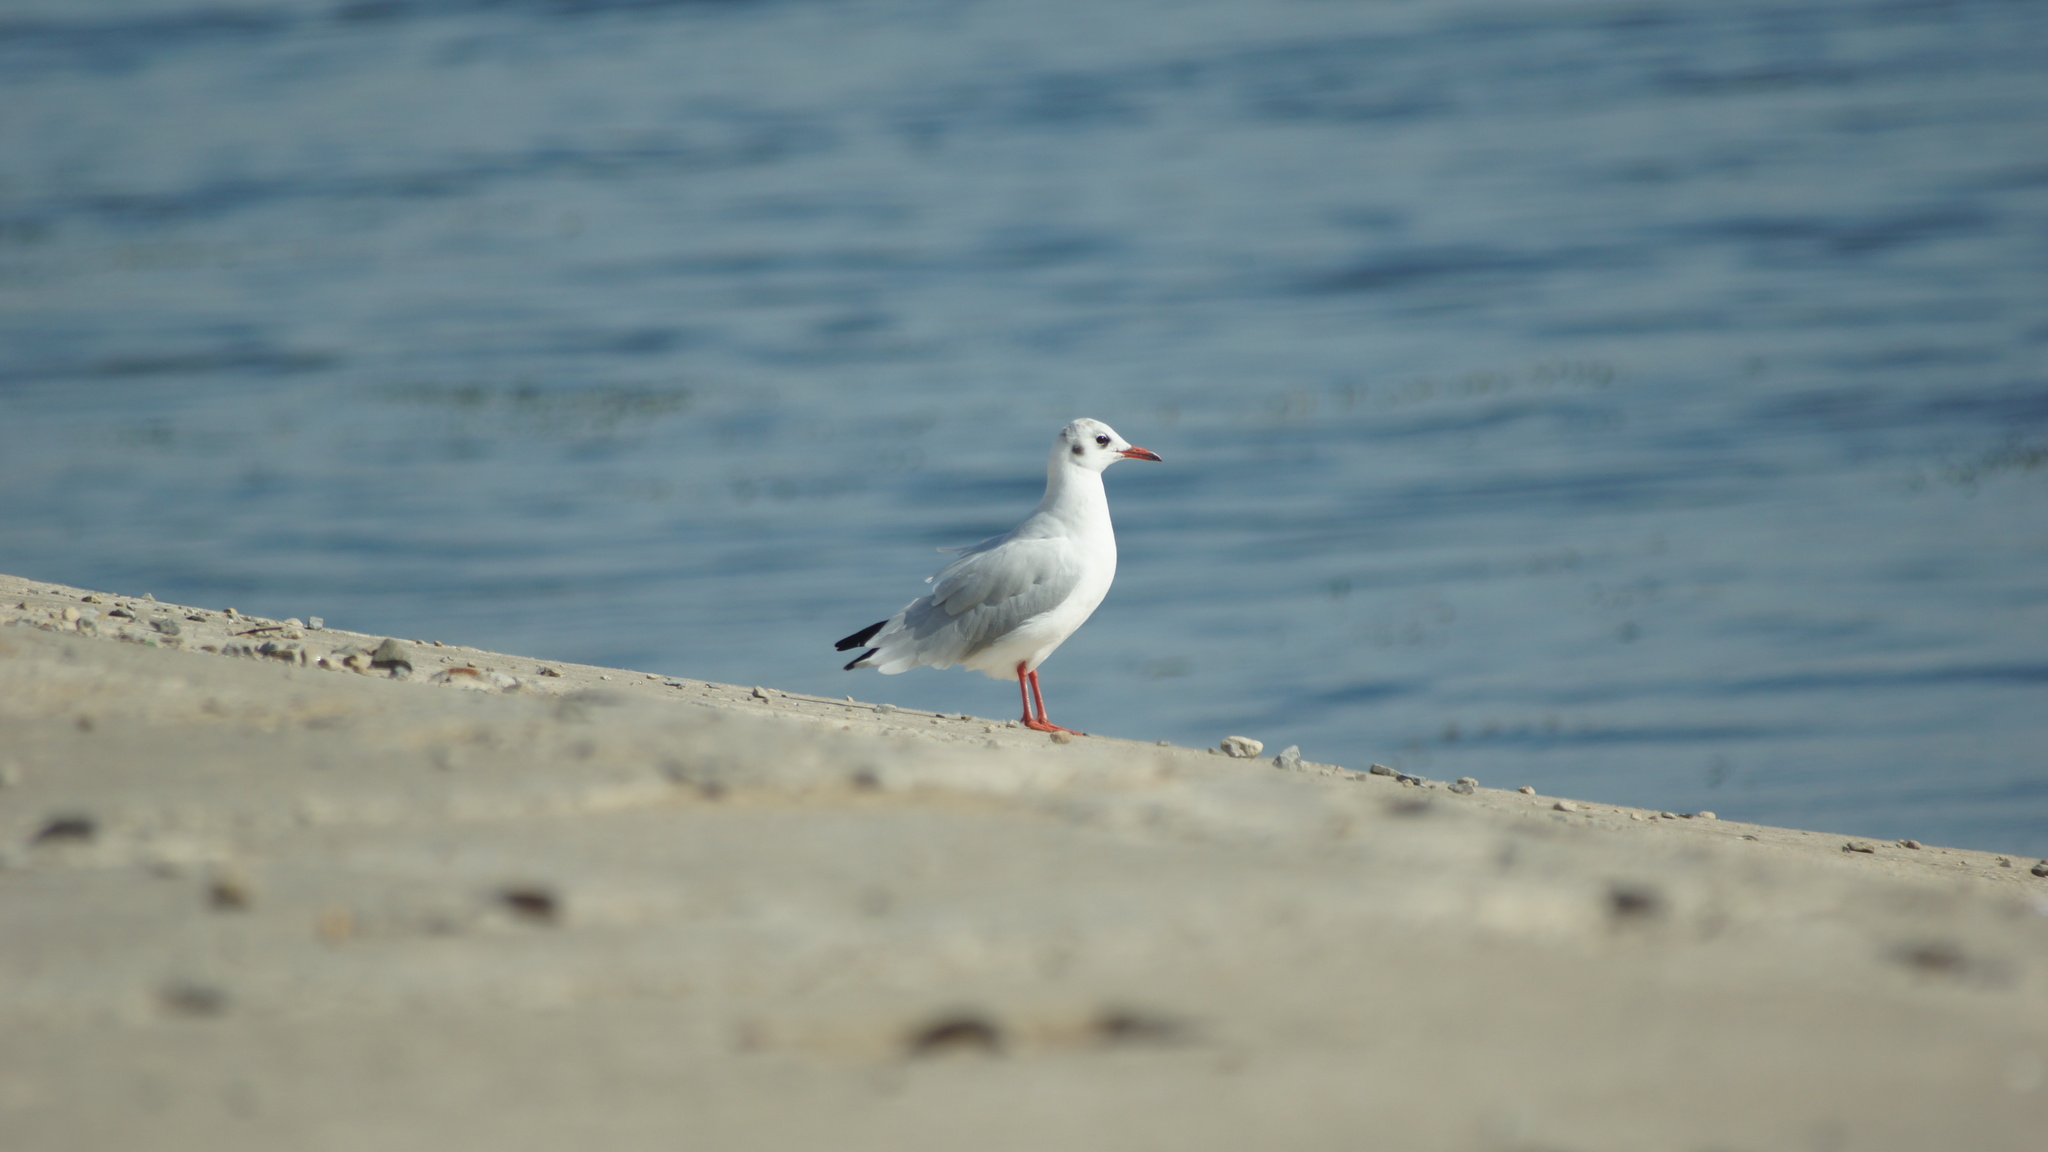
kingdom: Animalia
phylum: Chordata
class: Aves
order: Charadriiformes
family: Laridae
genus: Chroicocephalus
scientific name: Chroicocephalus ridibundus
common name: Black-headed gull
